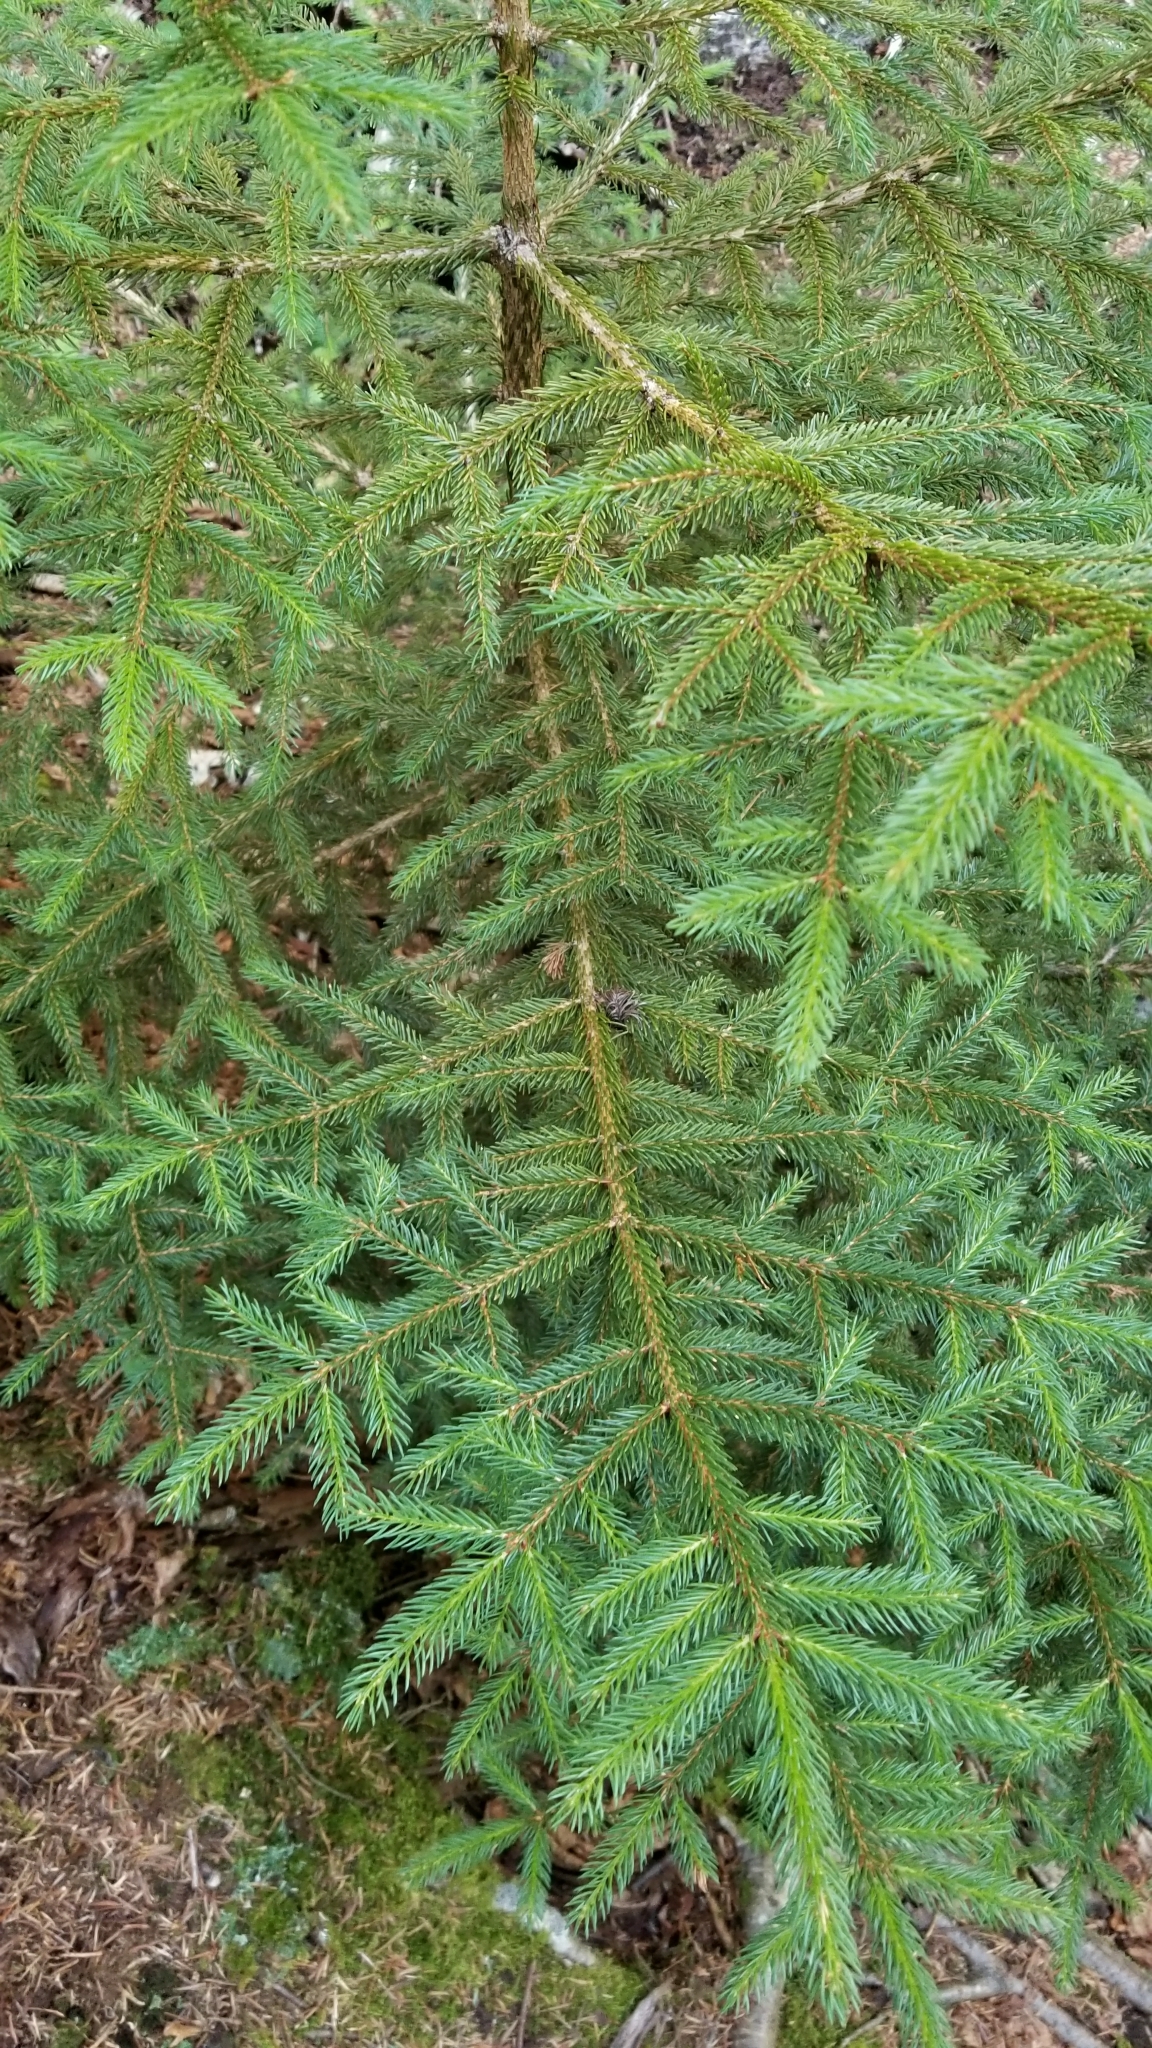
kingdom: Plantae
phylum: Tracheophyta
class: Pinopsida
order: Pinales
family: Pinaceae
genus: Picea
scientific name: Picea rubens
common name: Red spruce
